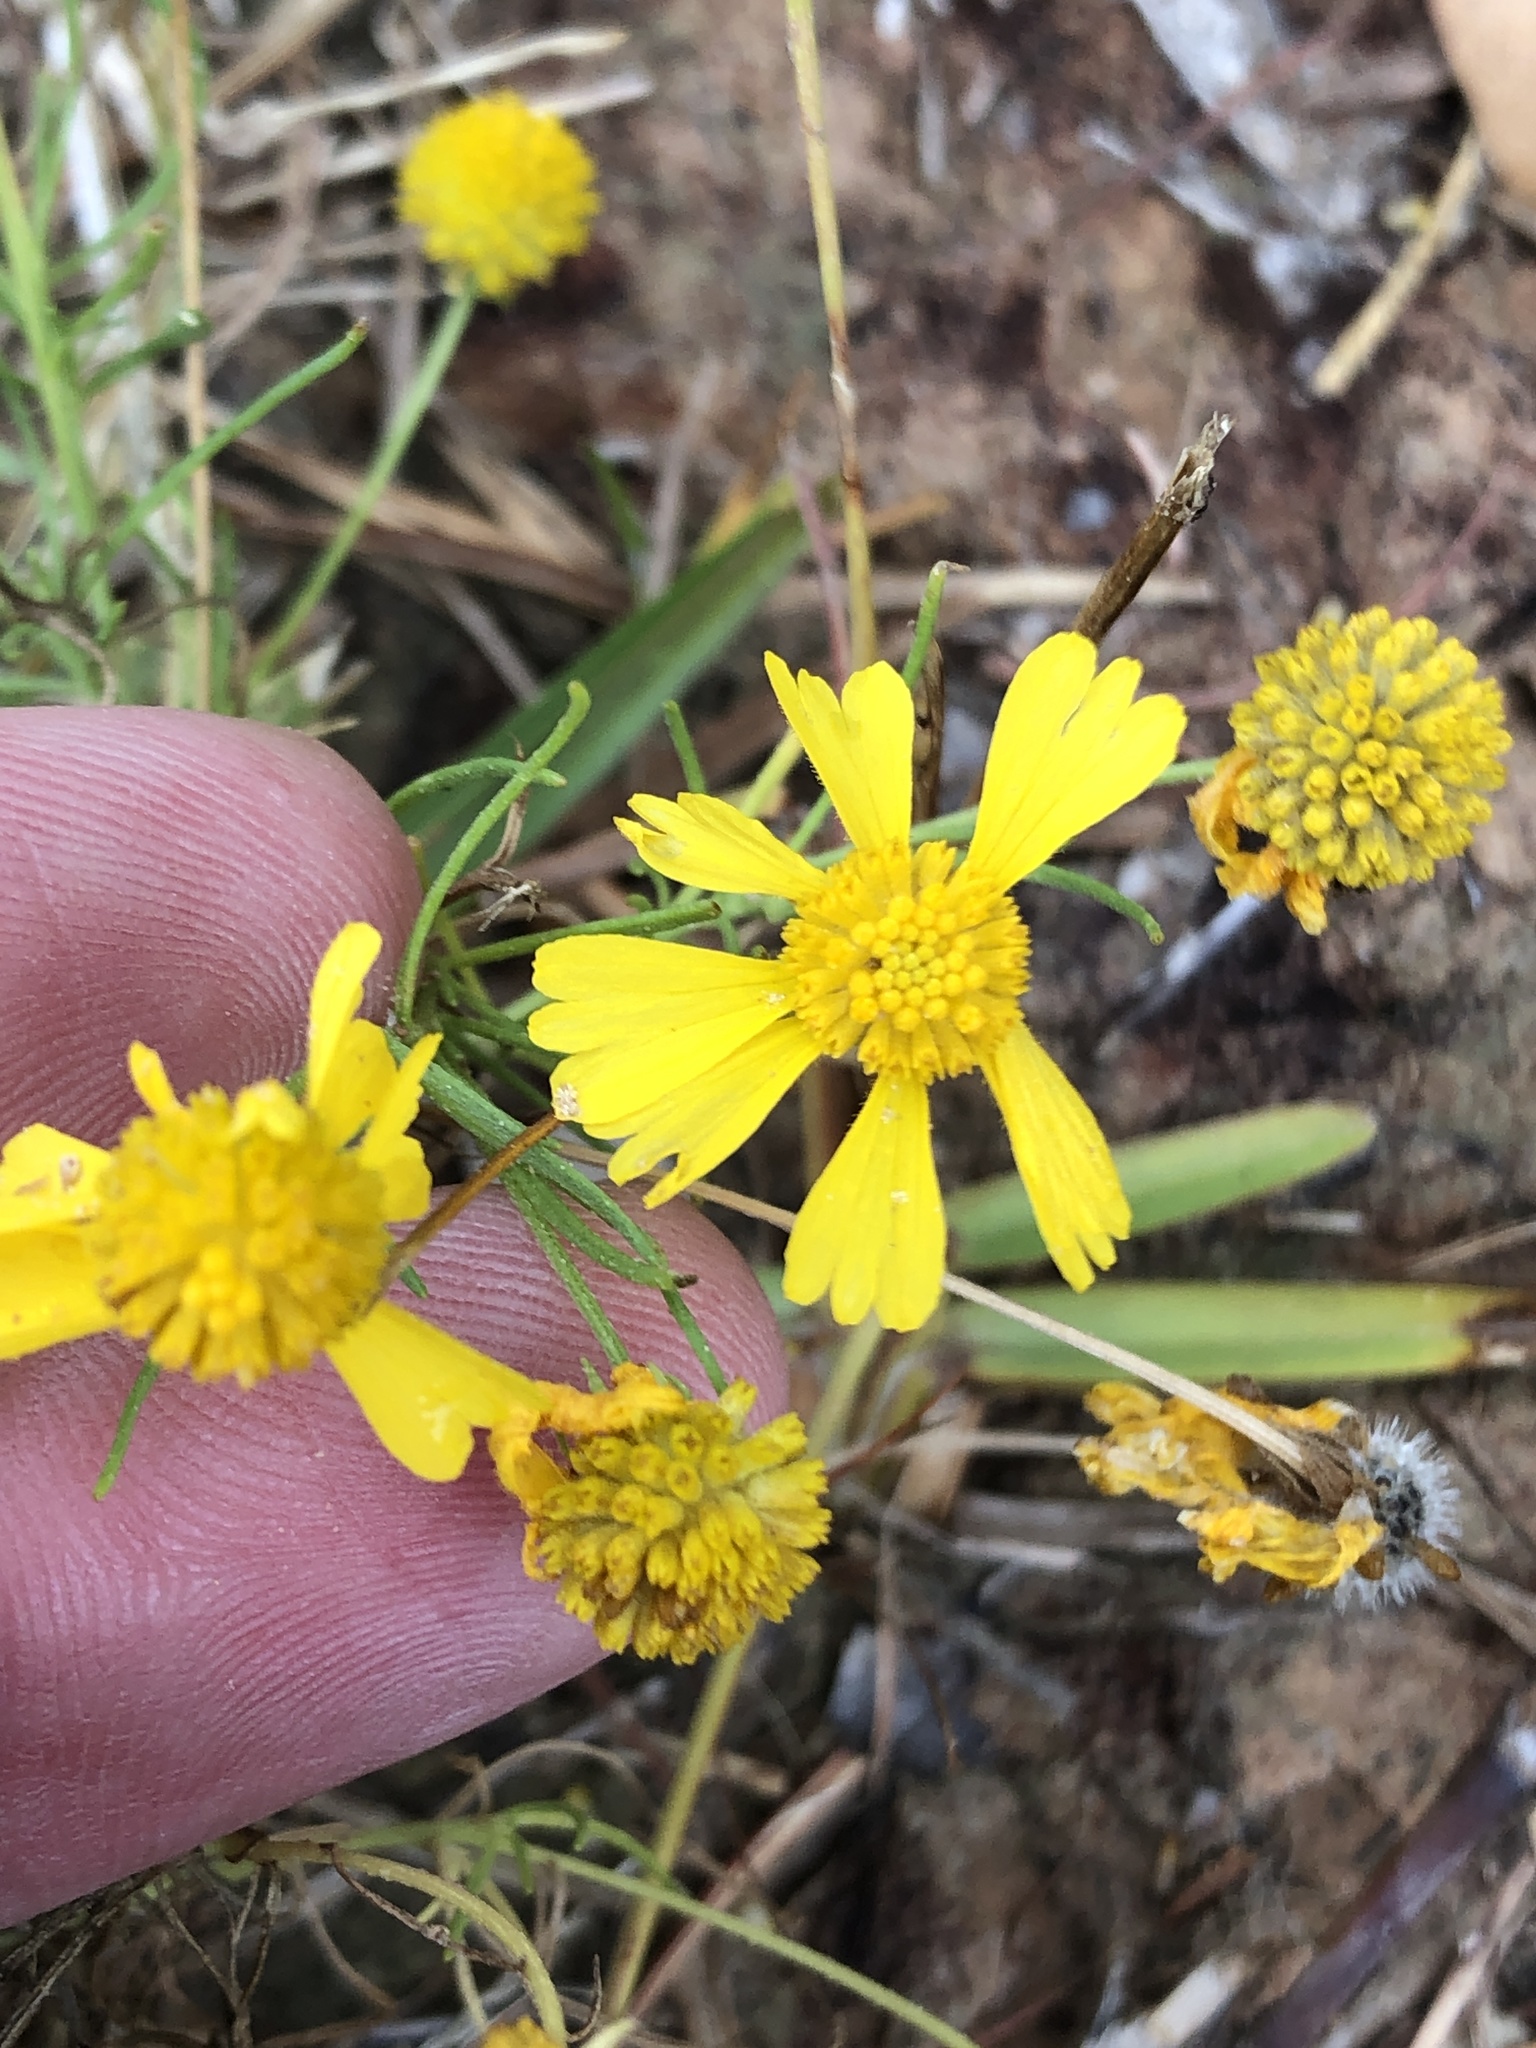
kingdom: Plantae
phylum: Tracheophyta
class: Magnoliopsida
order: Asterales
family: Asteraceae
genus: Helenium
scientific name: Helenium amarum
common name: Bitter sneezeweed
